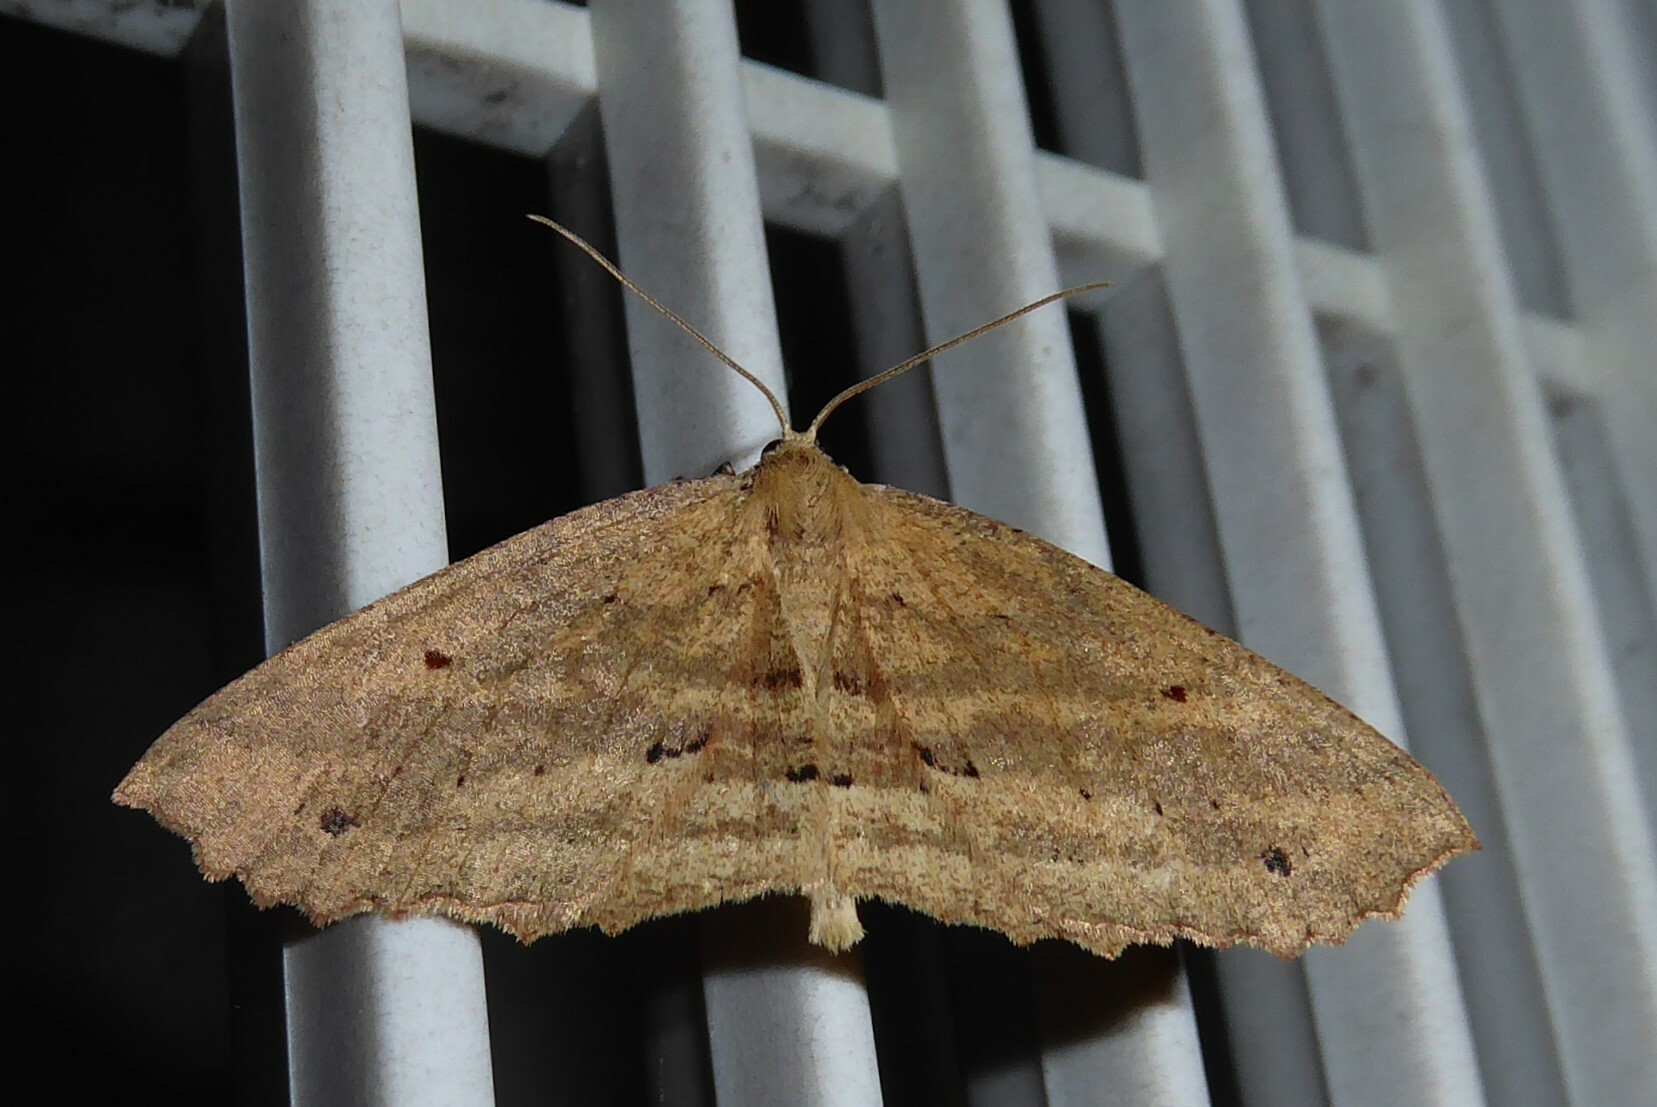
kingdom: Animalia
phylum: Arthropoda
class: Insecta
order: Lepidoptera
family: Geometridae
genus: Xyridacma
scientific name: Xyridacma veronicae
